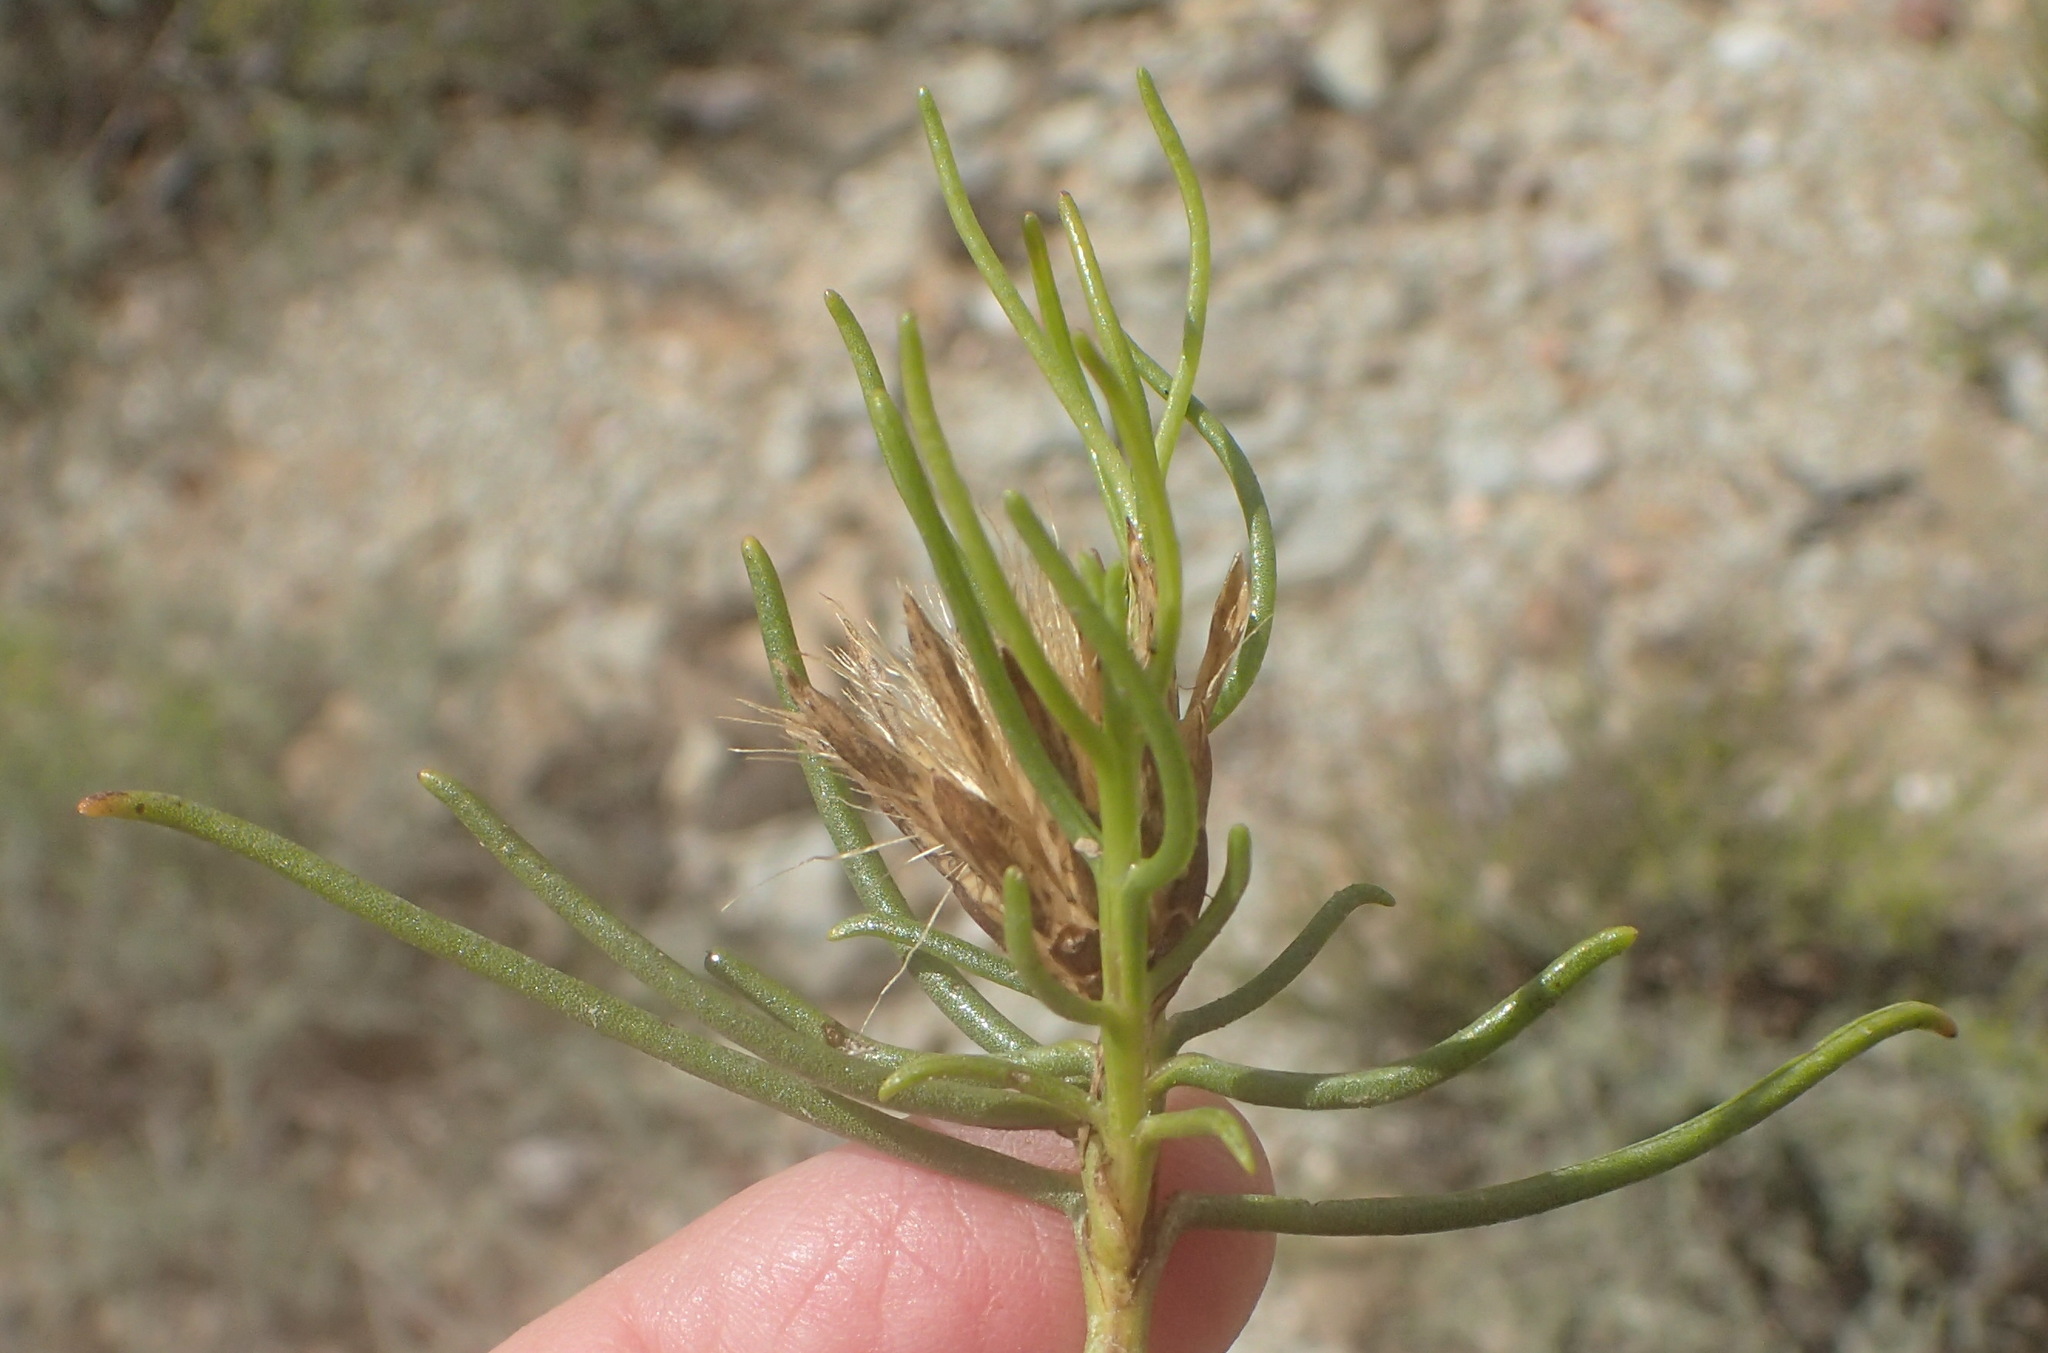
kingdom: Plantae
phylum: Tracheophyta
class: Magnoliopsida
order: Asterales
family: Asteraceae
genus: Pteronia
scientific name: Pteronia flexicaulis
